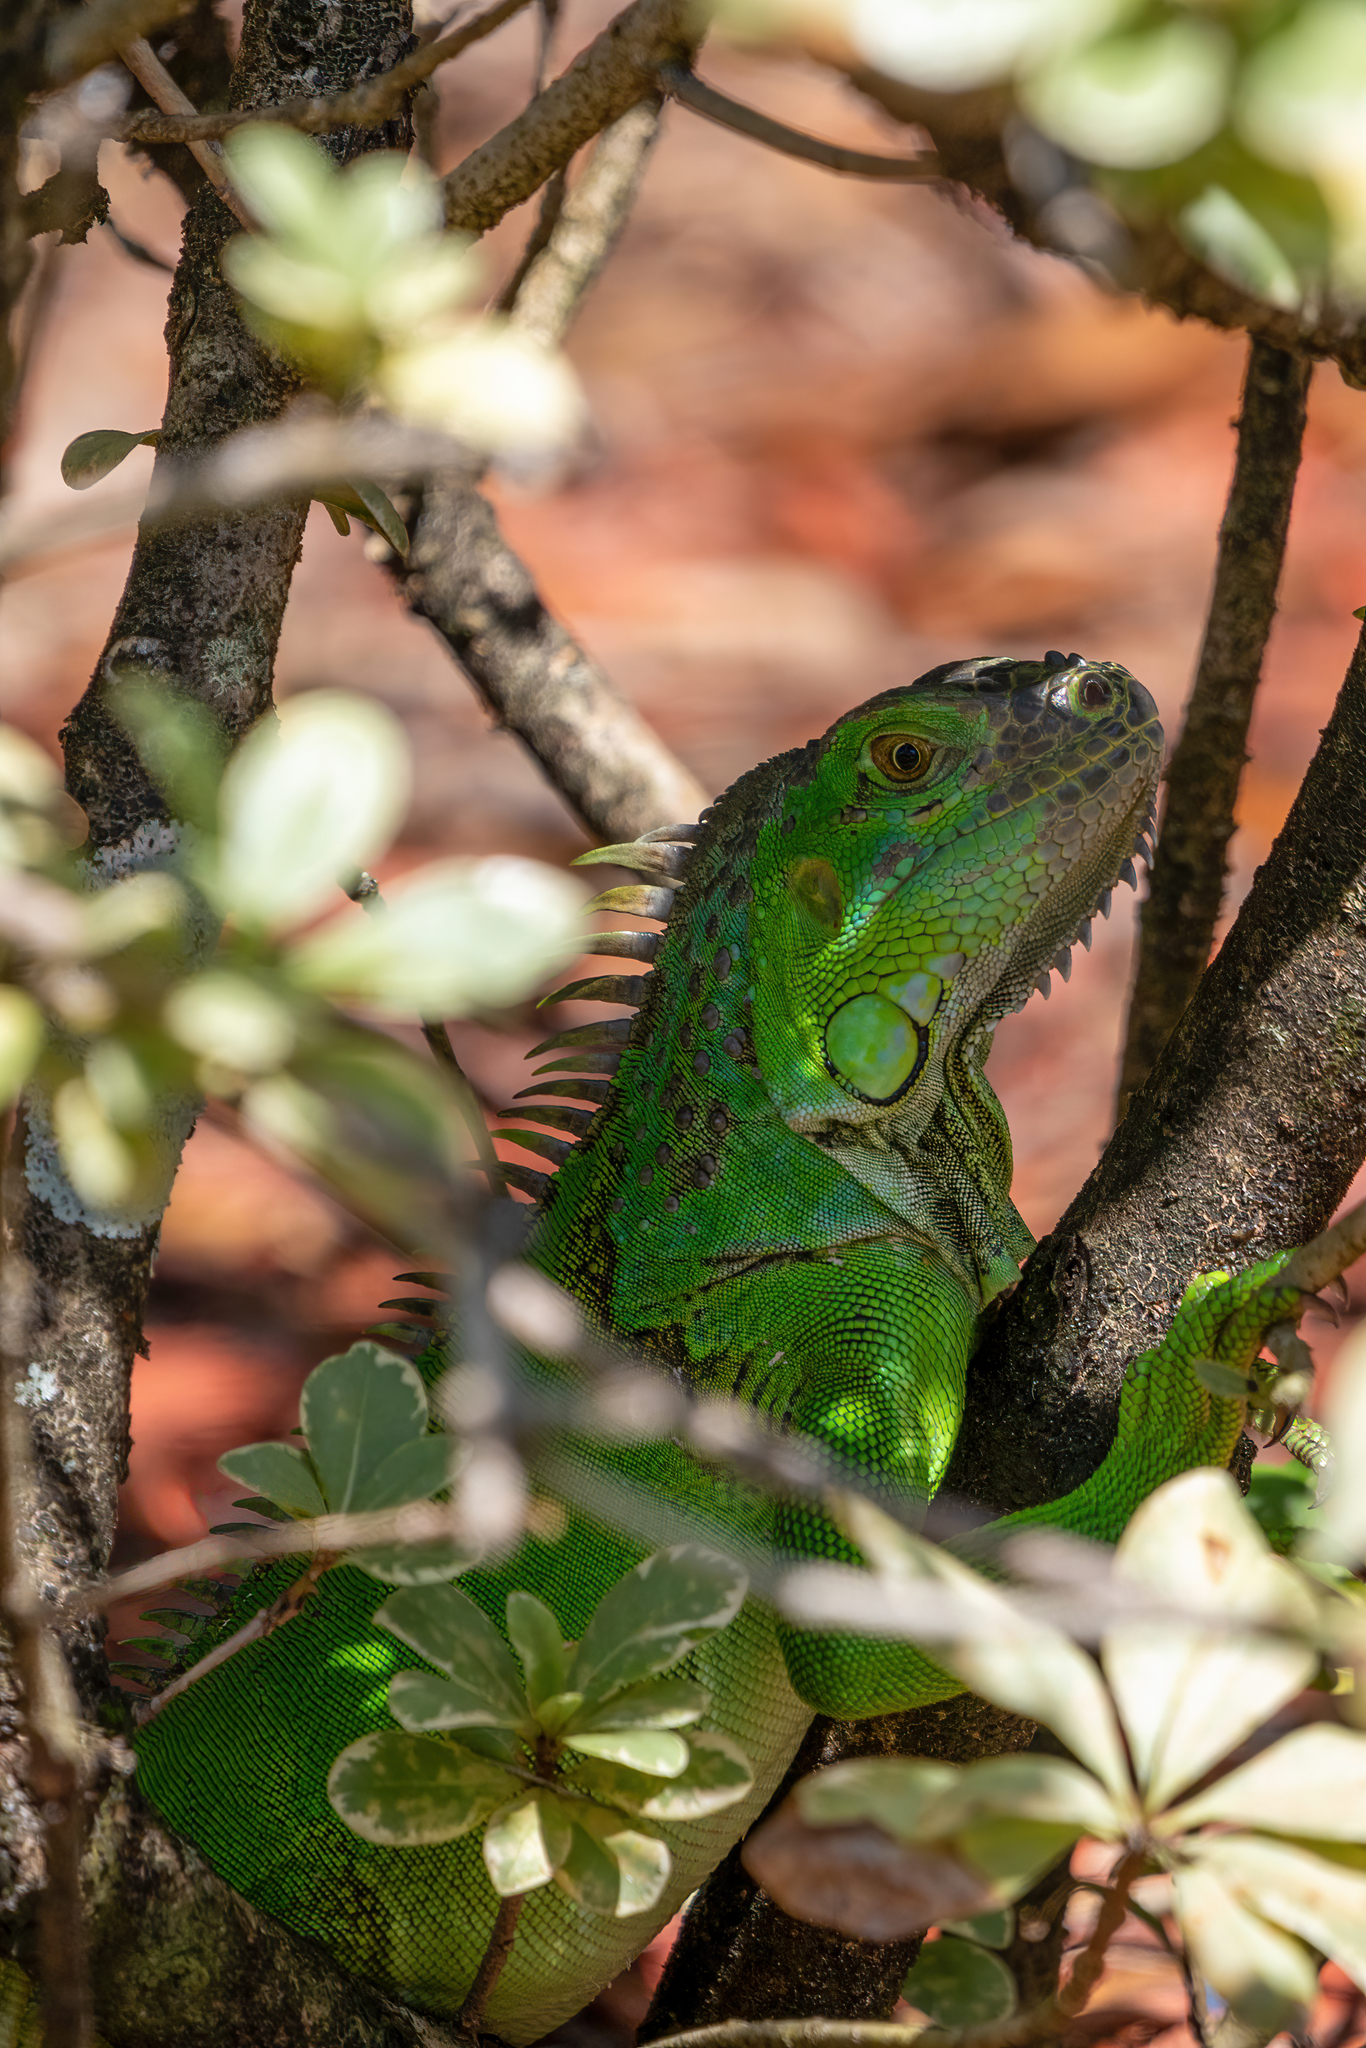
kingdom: Animalia
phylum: Chordata
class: Squamata
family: Iguanidae
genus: Iguana
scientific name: Iguana iguana
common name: Green iguana
